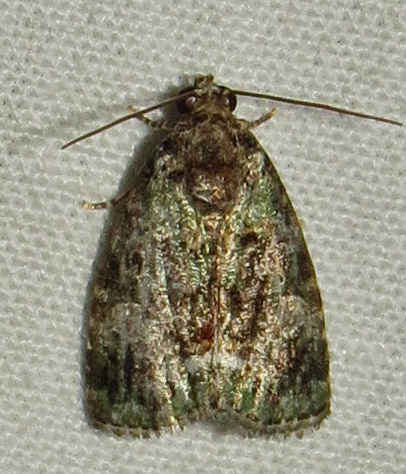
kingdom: Animalia
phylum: Arthropoda
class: Insecta
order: Lepidoptera
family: Noctuidae
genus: Lithacodia
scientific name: Lithacodia musta
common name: Small mossy glyph
